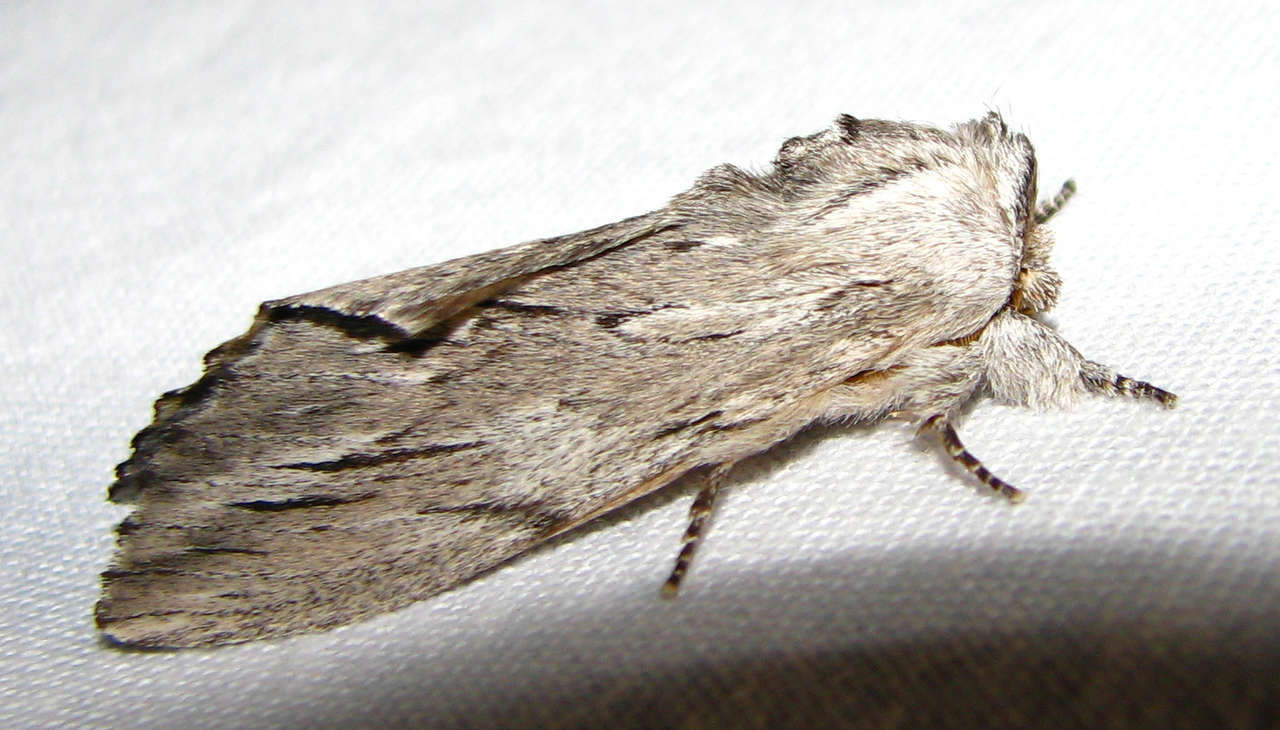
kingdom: Animalia
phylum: Arthropoda
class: Insecta
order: Lepidoptera
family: Notodontidae
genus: Destolmia
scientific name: Destolmia lineata
